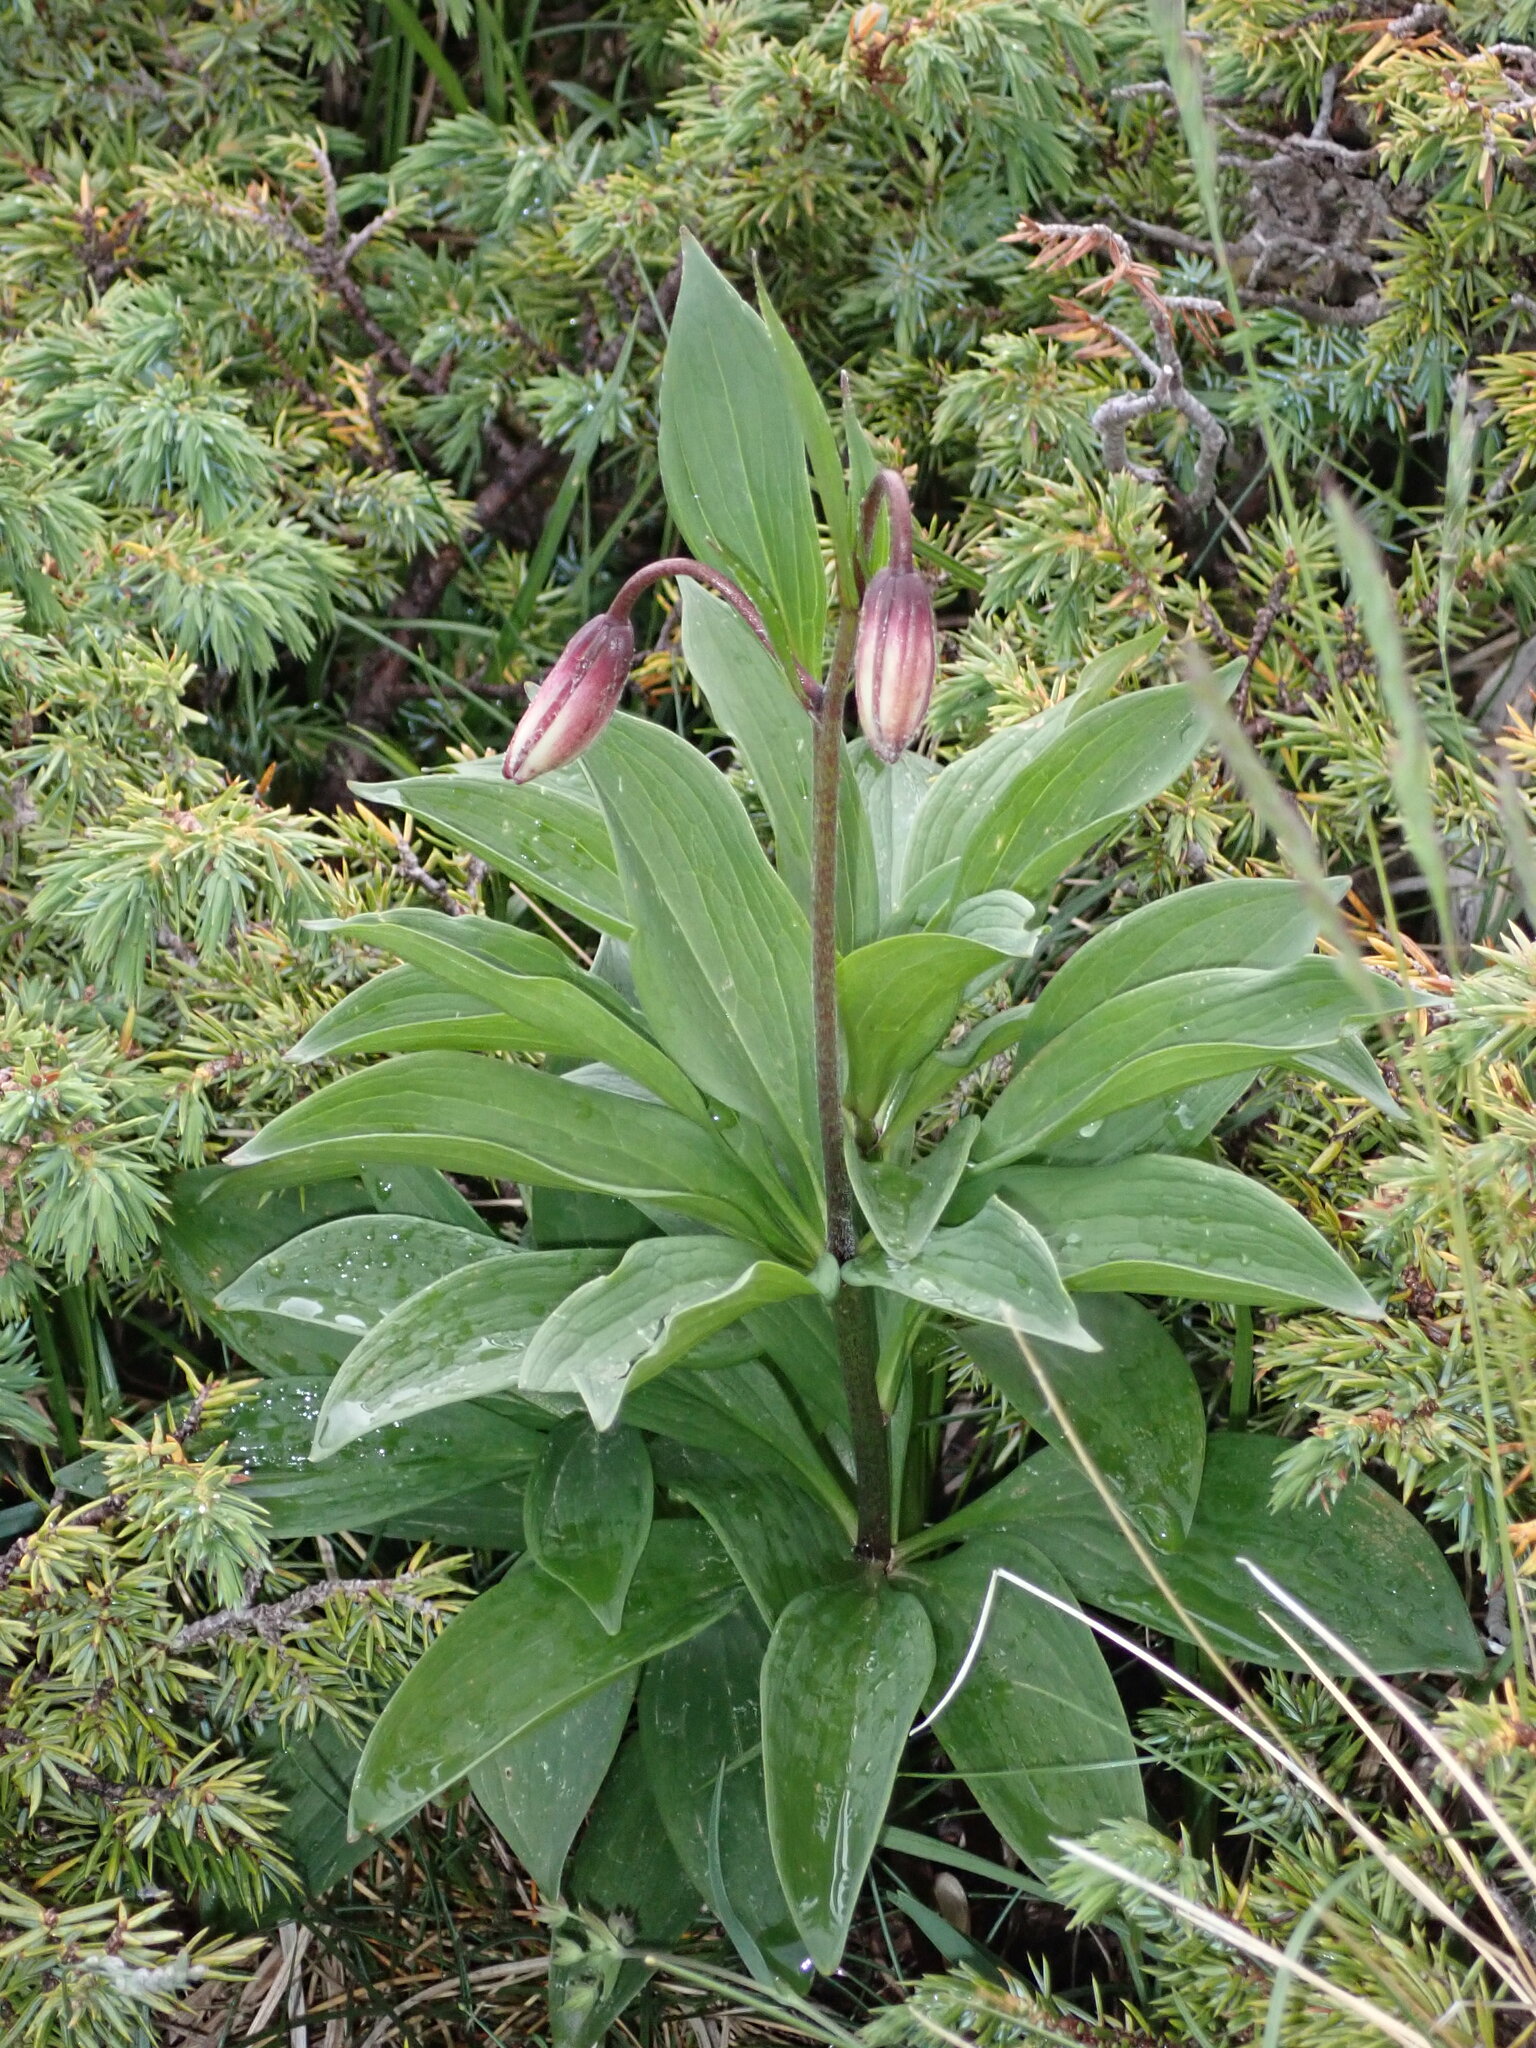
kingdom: Plantae
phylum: Tracheophyta
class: Liliopsida
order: Liliales
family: Liliaceae
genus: Lilium
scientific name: Lilium martagon
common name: Martagon lily
